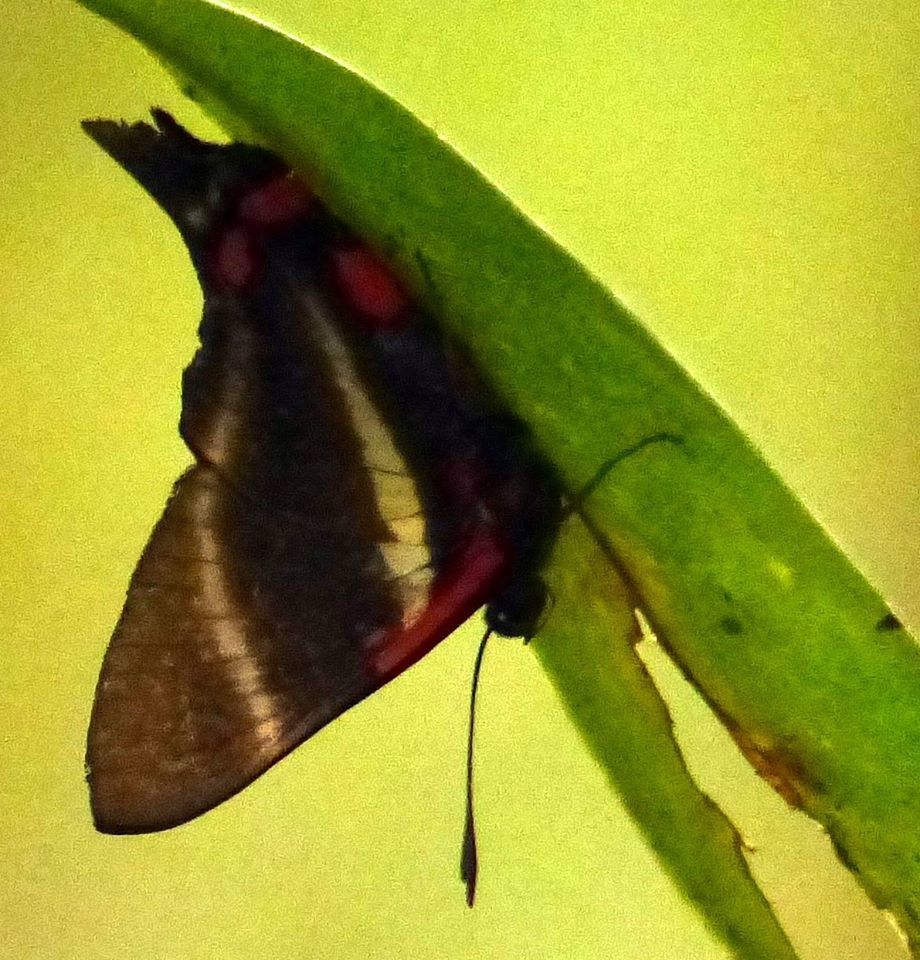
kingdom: Animalia
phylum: Arthropoda
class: Insecta
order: Lepidoptera
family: Riodinidae
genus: Rhetus
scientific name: Rhetus periander
